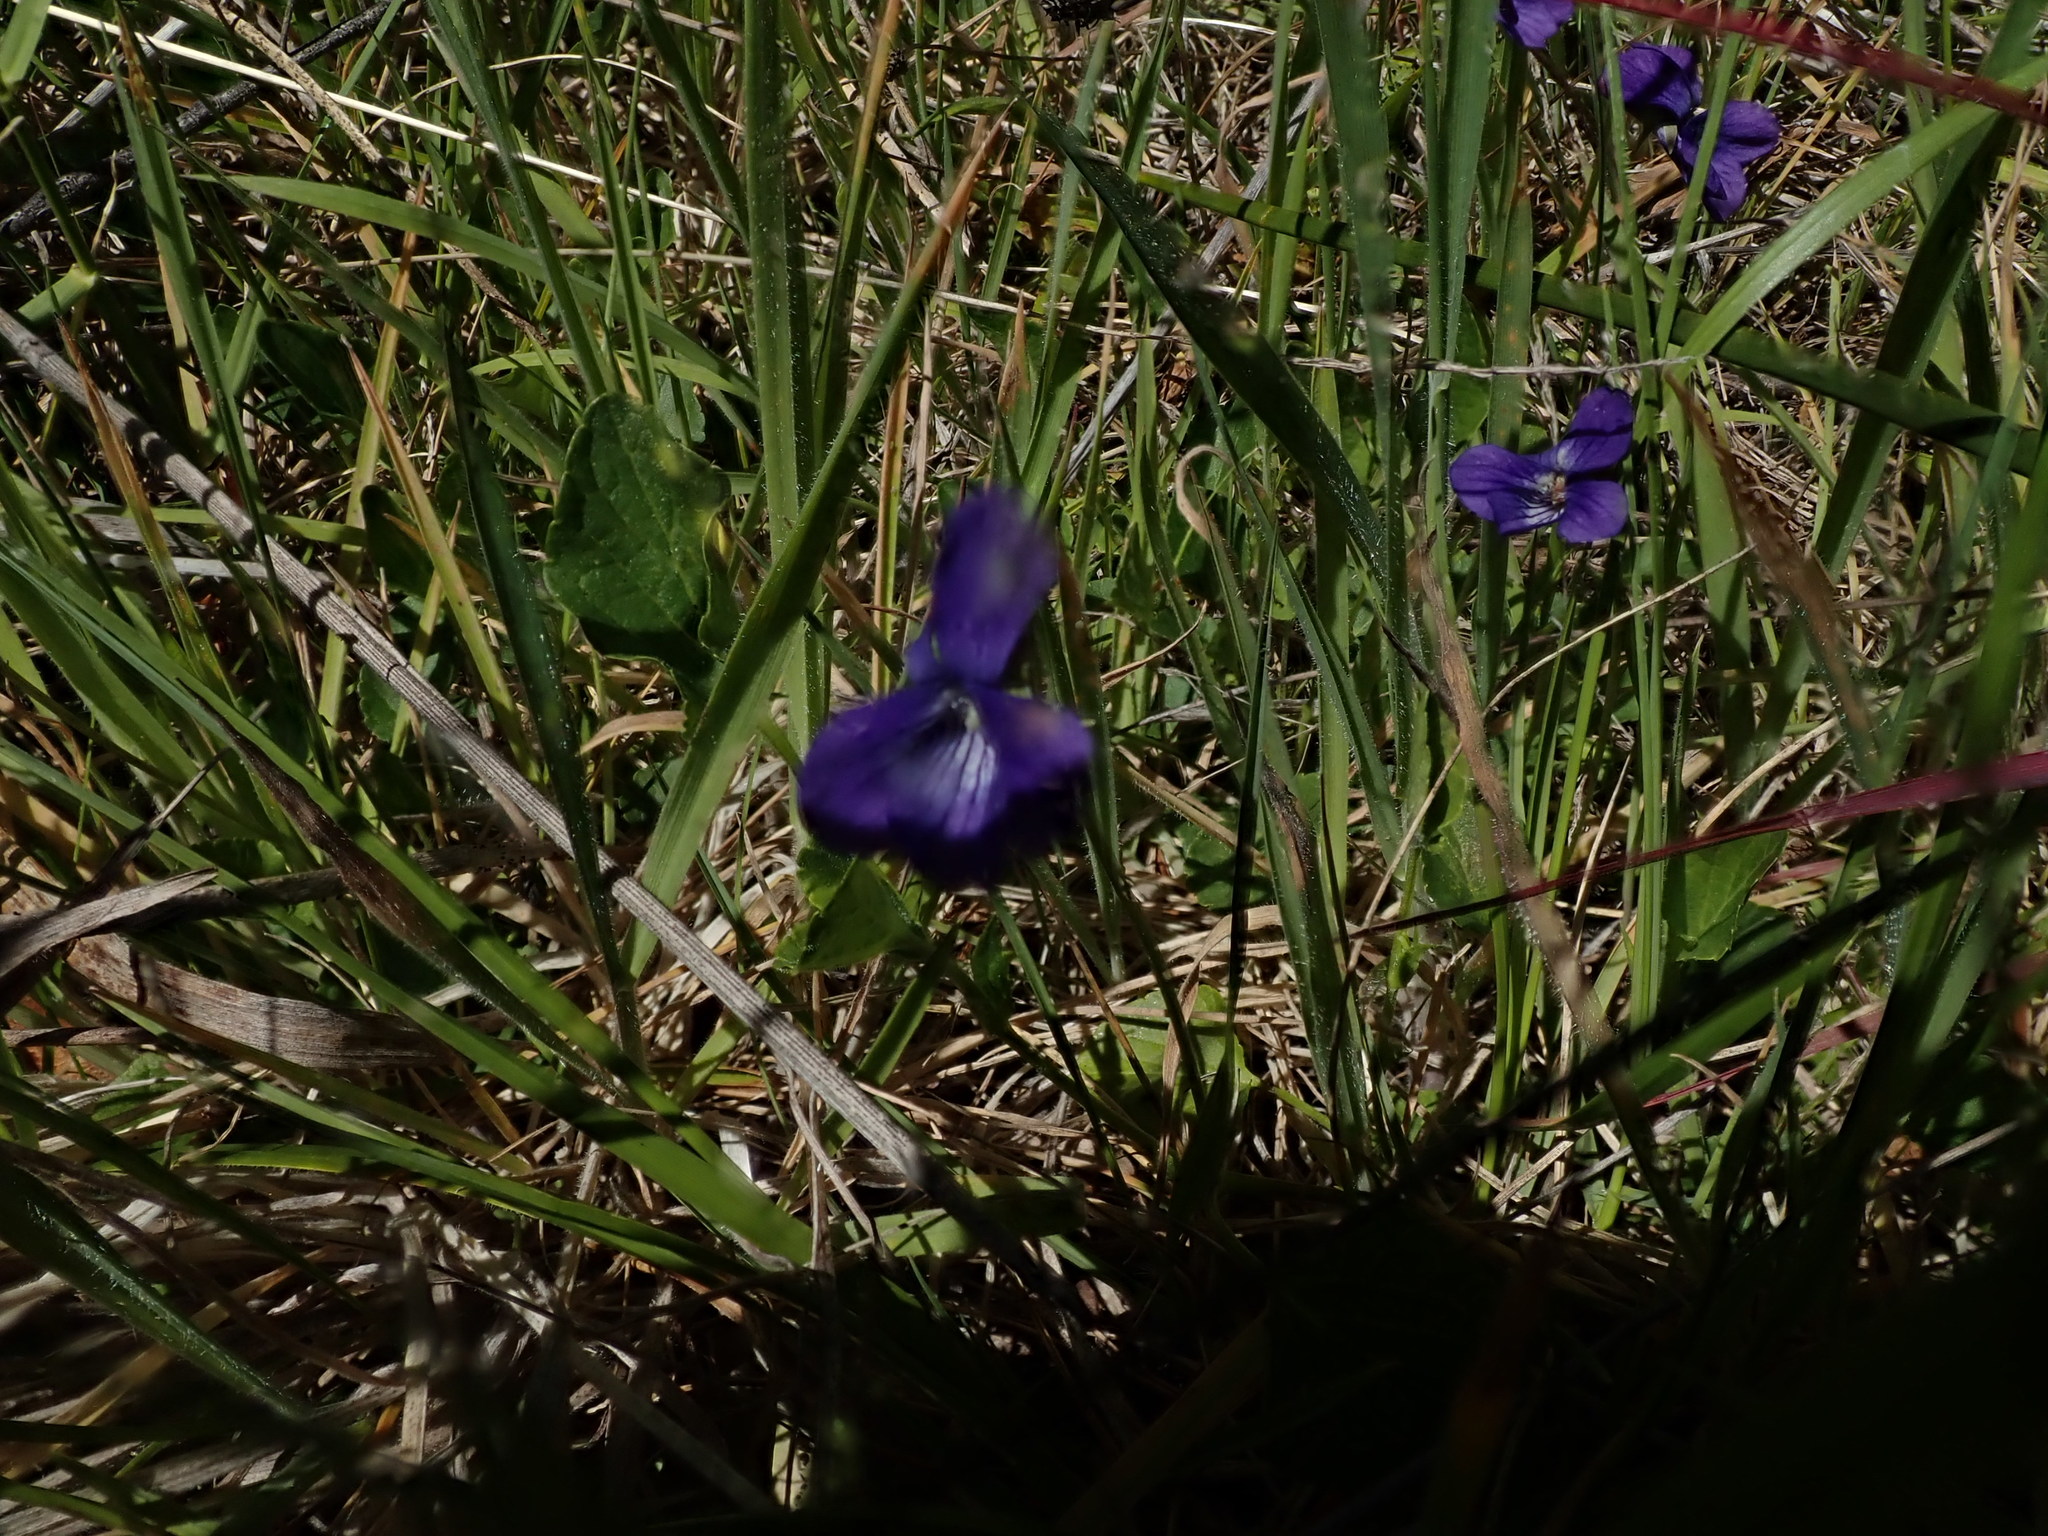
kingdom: Plantae
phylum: Tracheophyta
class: Magnoliopsida
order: Malpighiales
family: Violaceae
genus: Viola
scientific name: Viola adunca
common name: Sand violet
